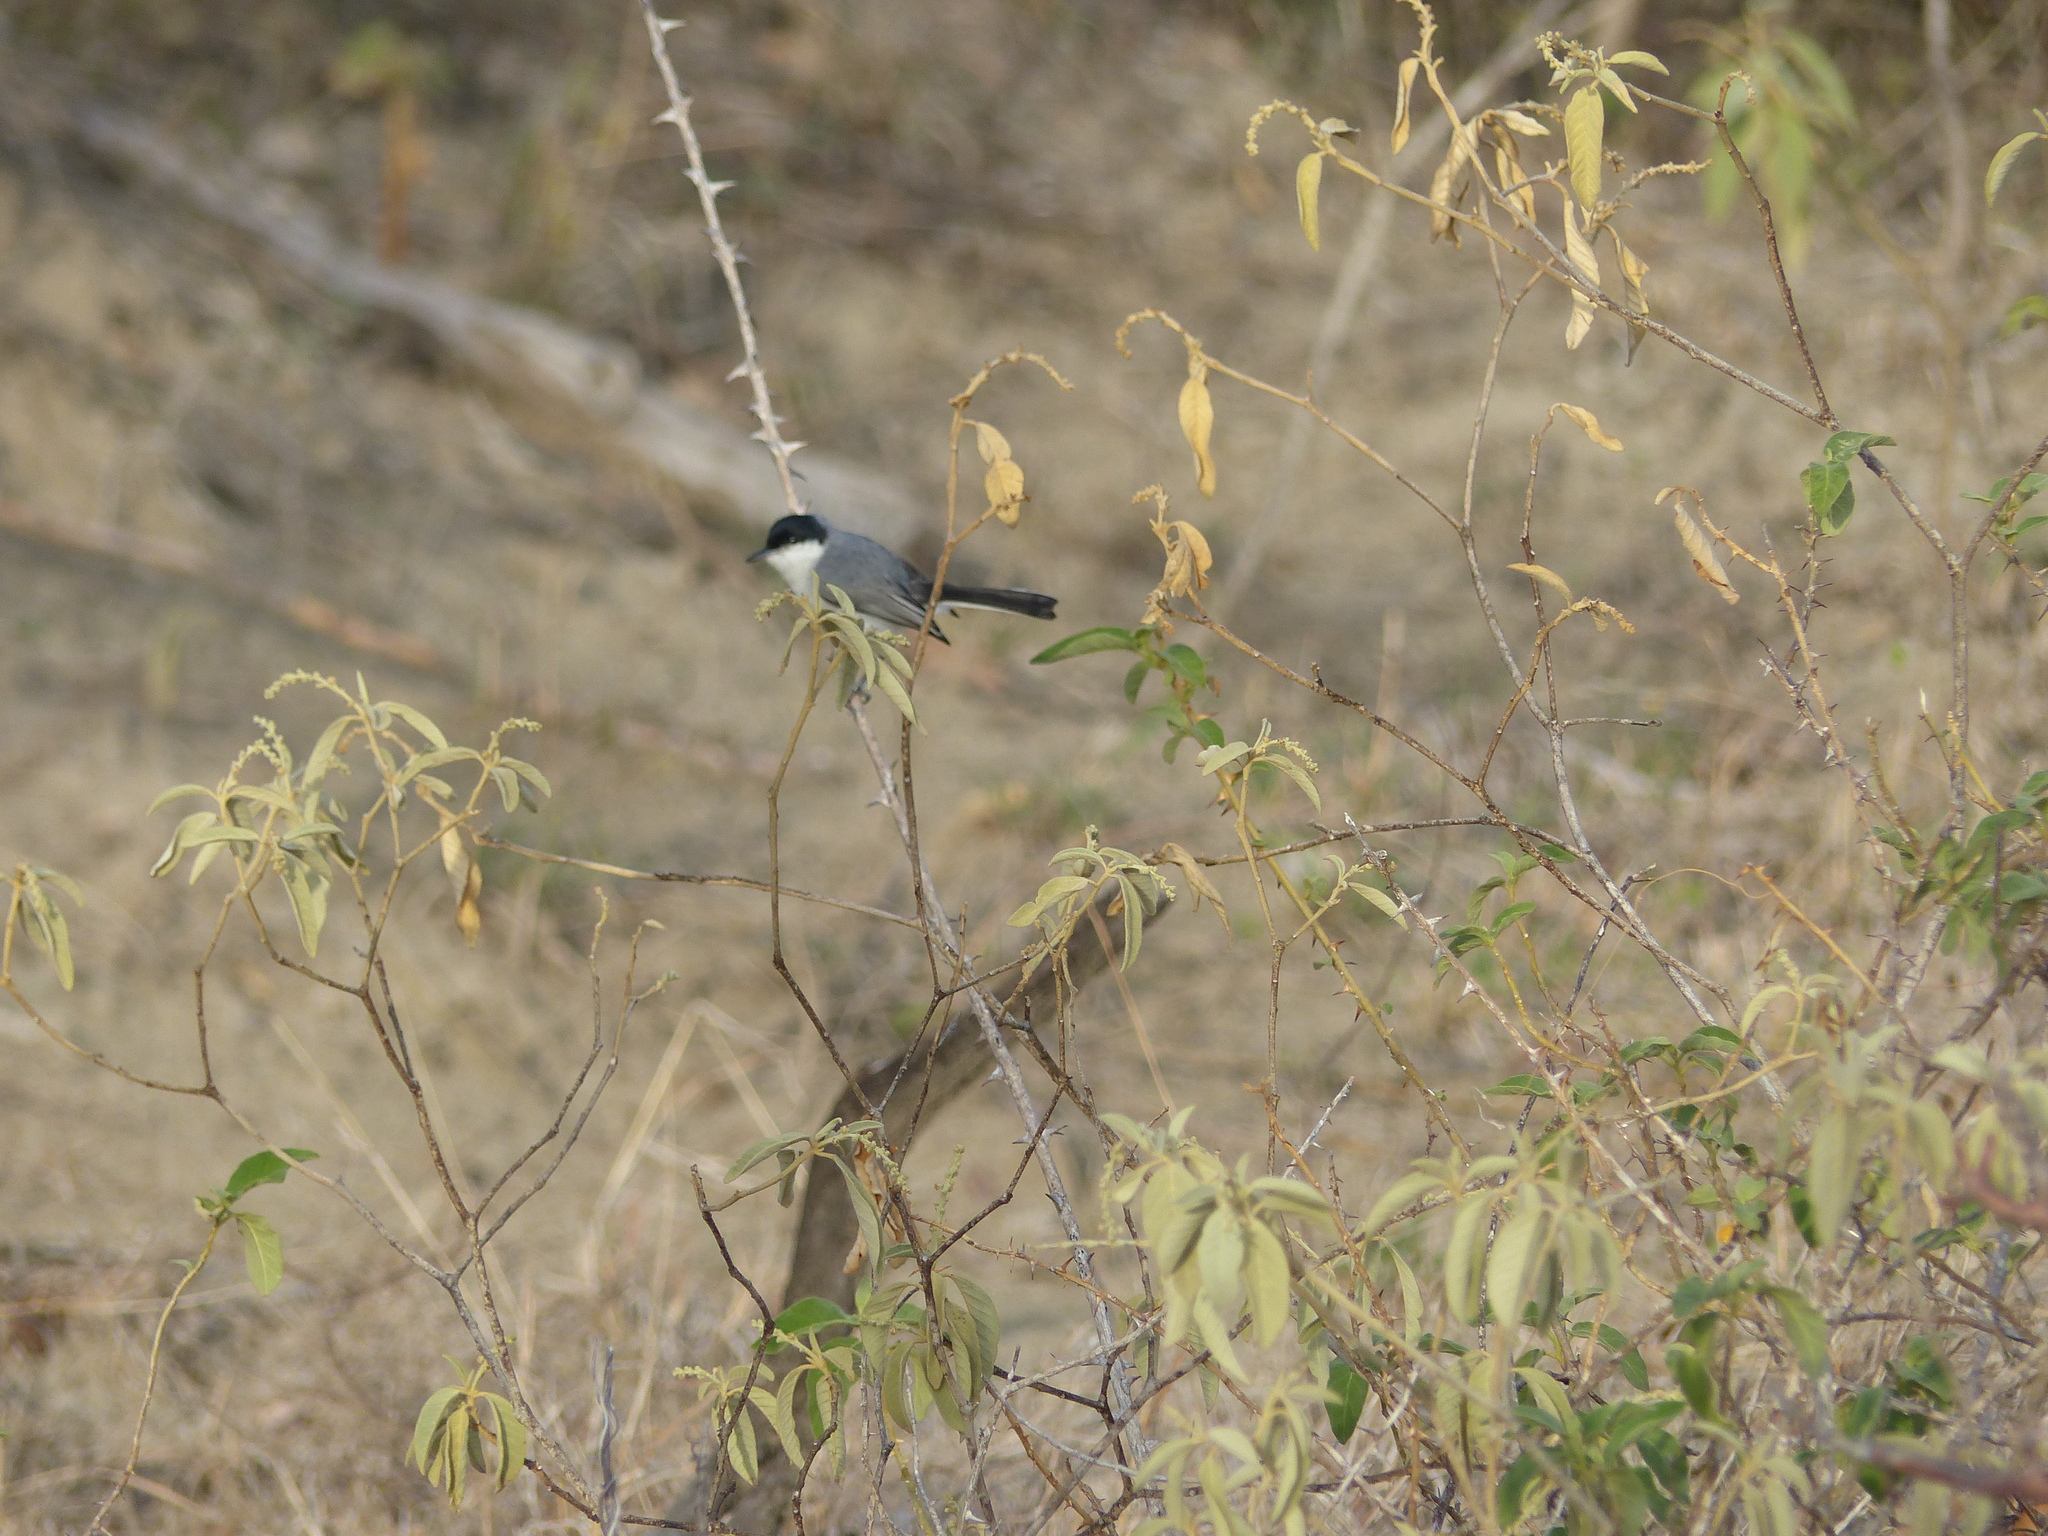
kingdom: Animalia
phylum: Chordata
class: Aves
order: Passeriformes
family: Polioptilidae
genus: Polioptila
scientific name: Polioptila plumbea
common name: Tropical gnatcatcher
